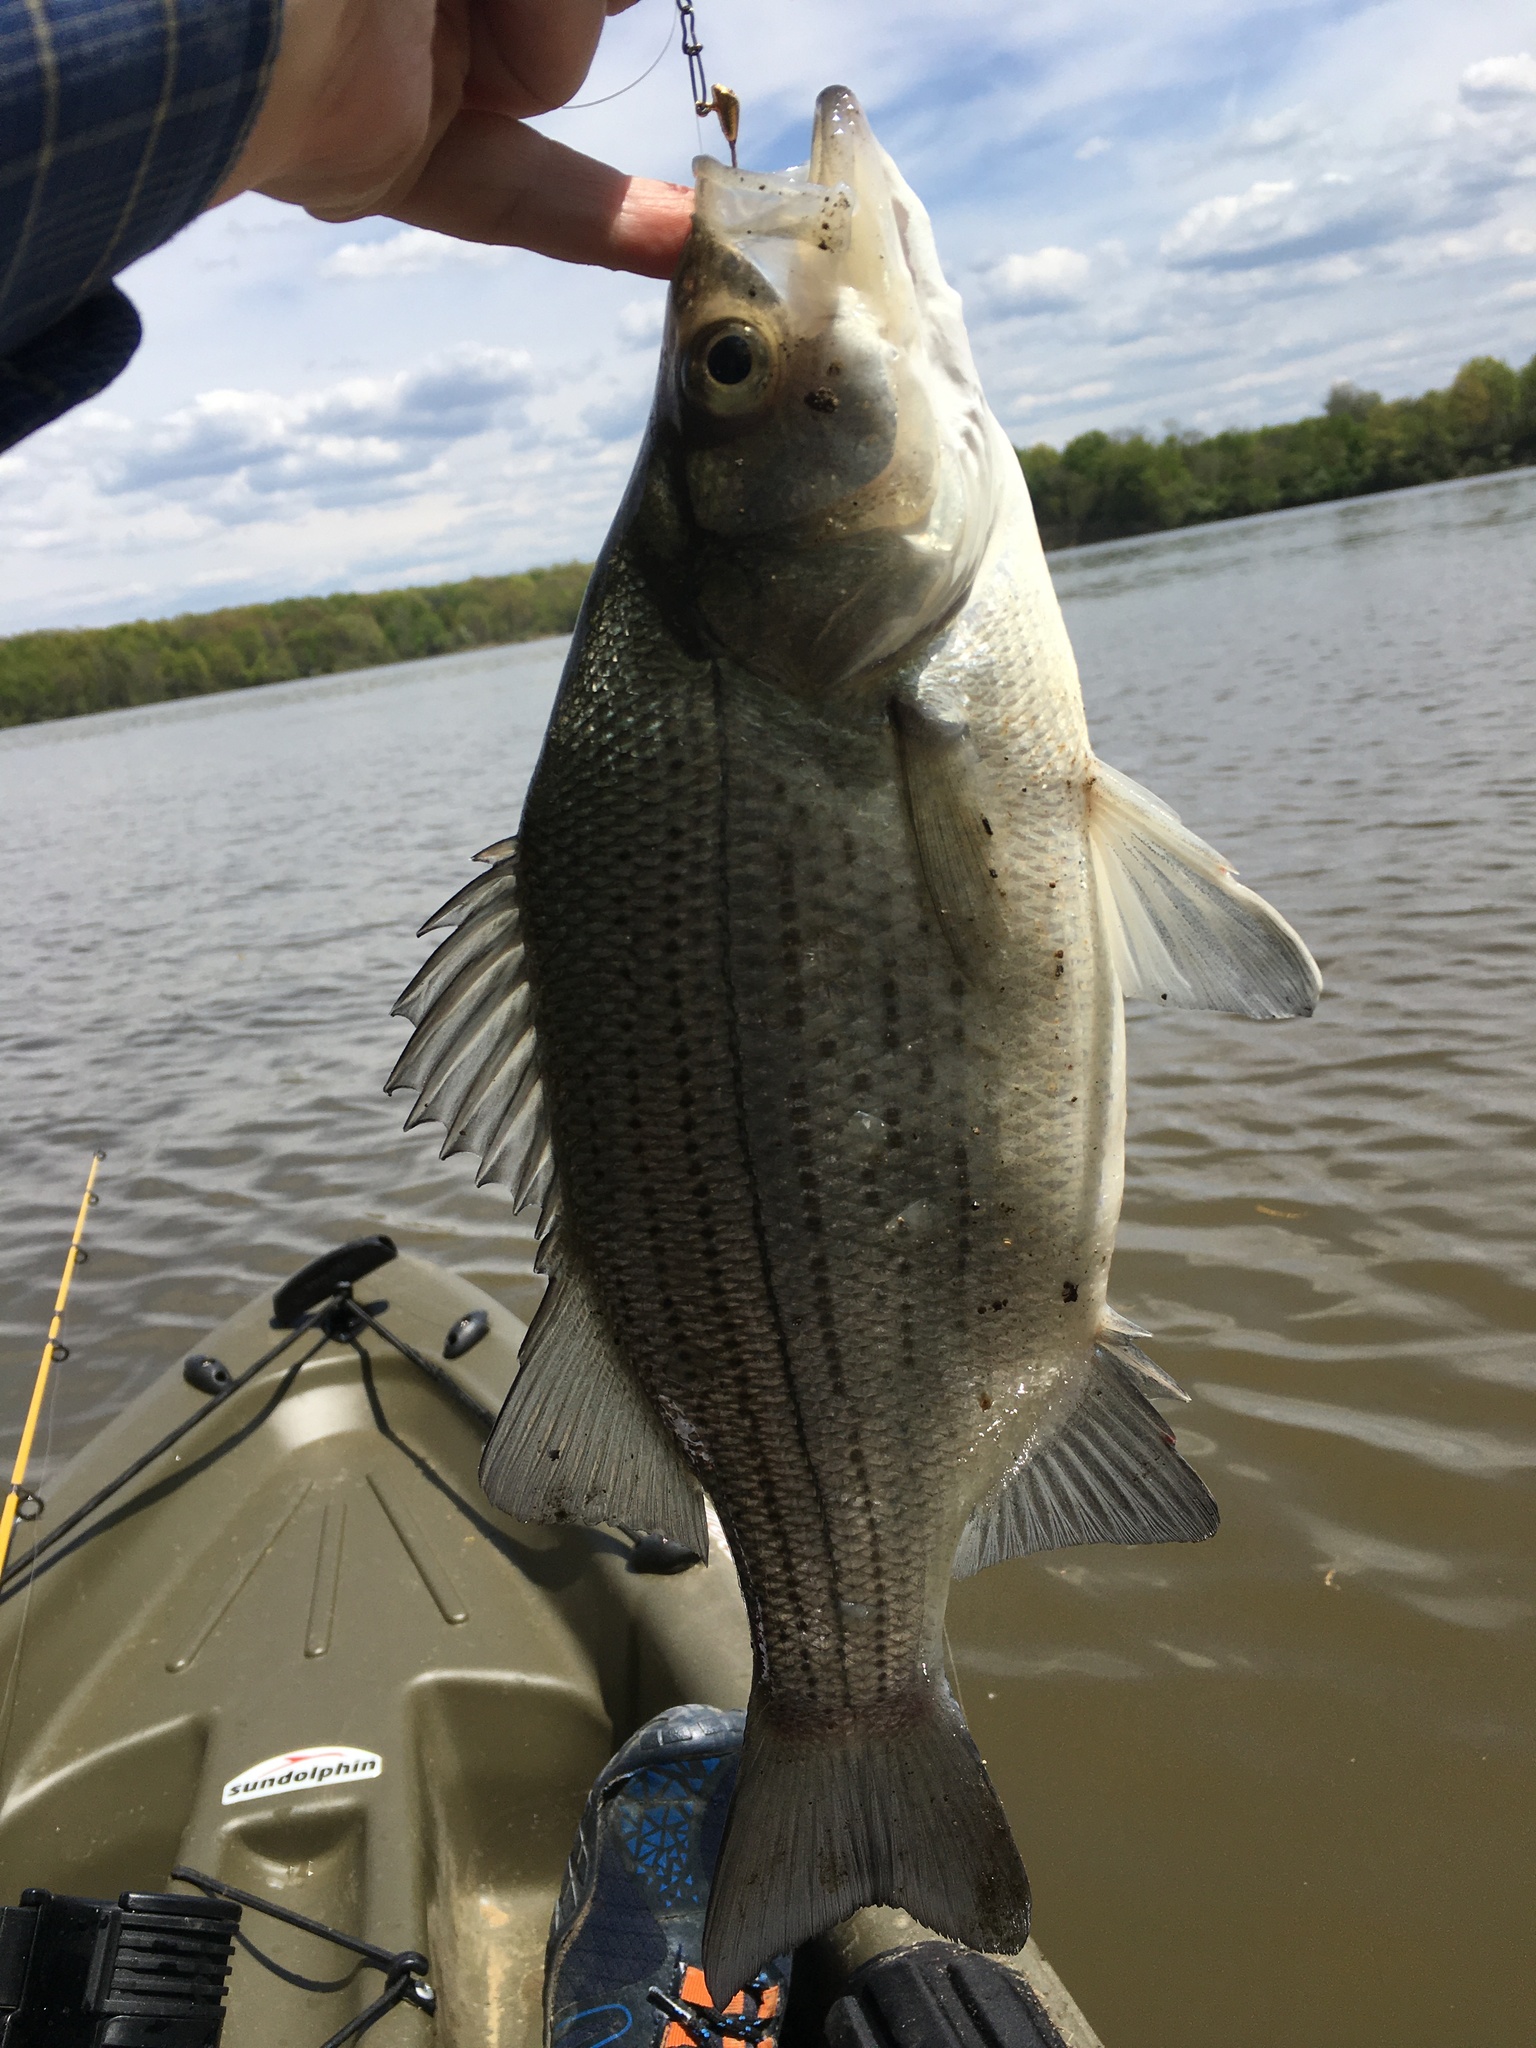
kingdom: Animalia
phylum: Chordata
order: Perciformes
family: Moronidae
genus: Morone
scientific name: Morone chrysops
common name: White bass
